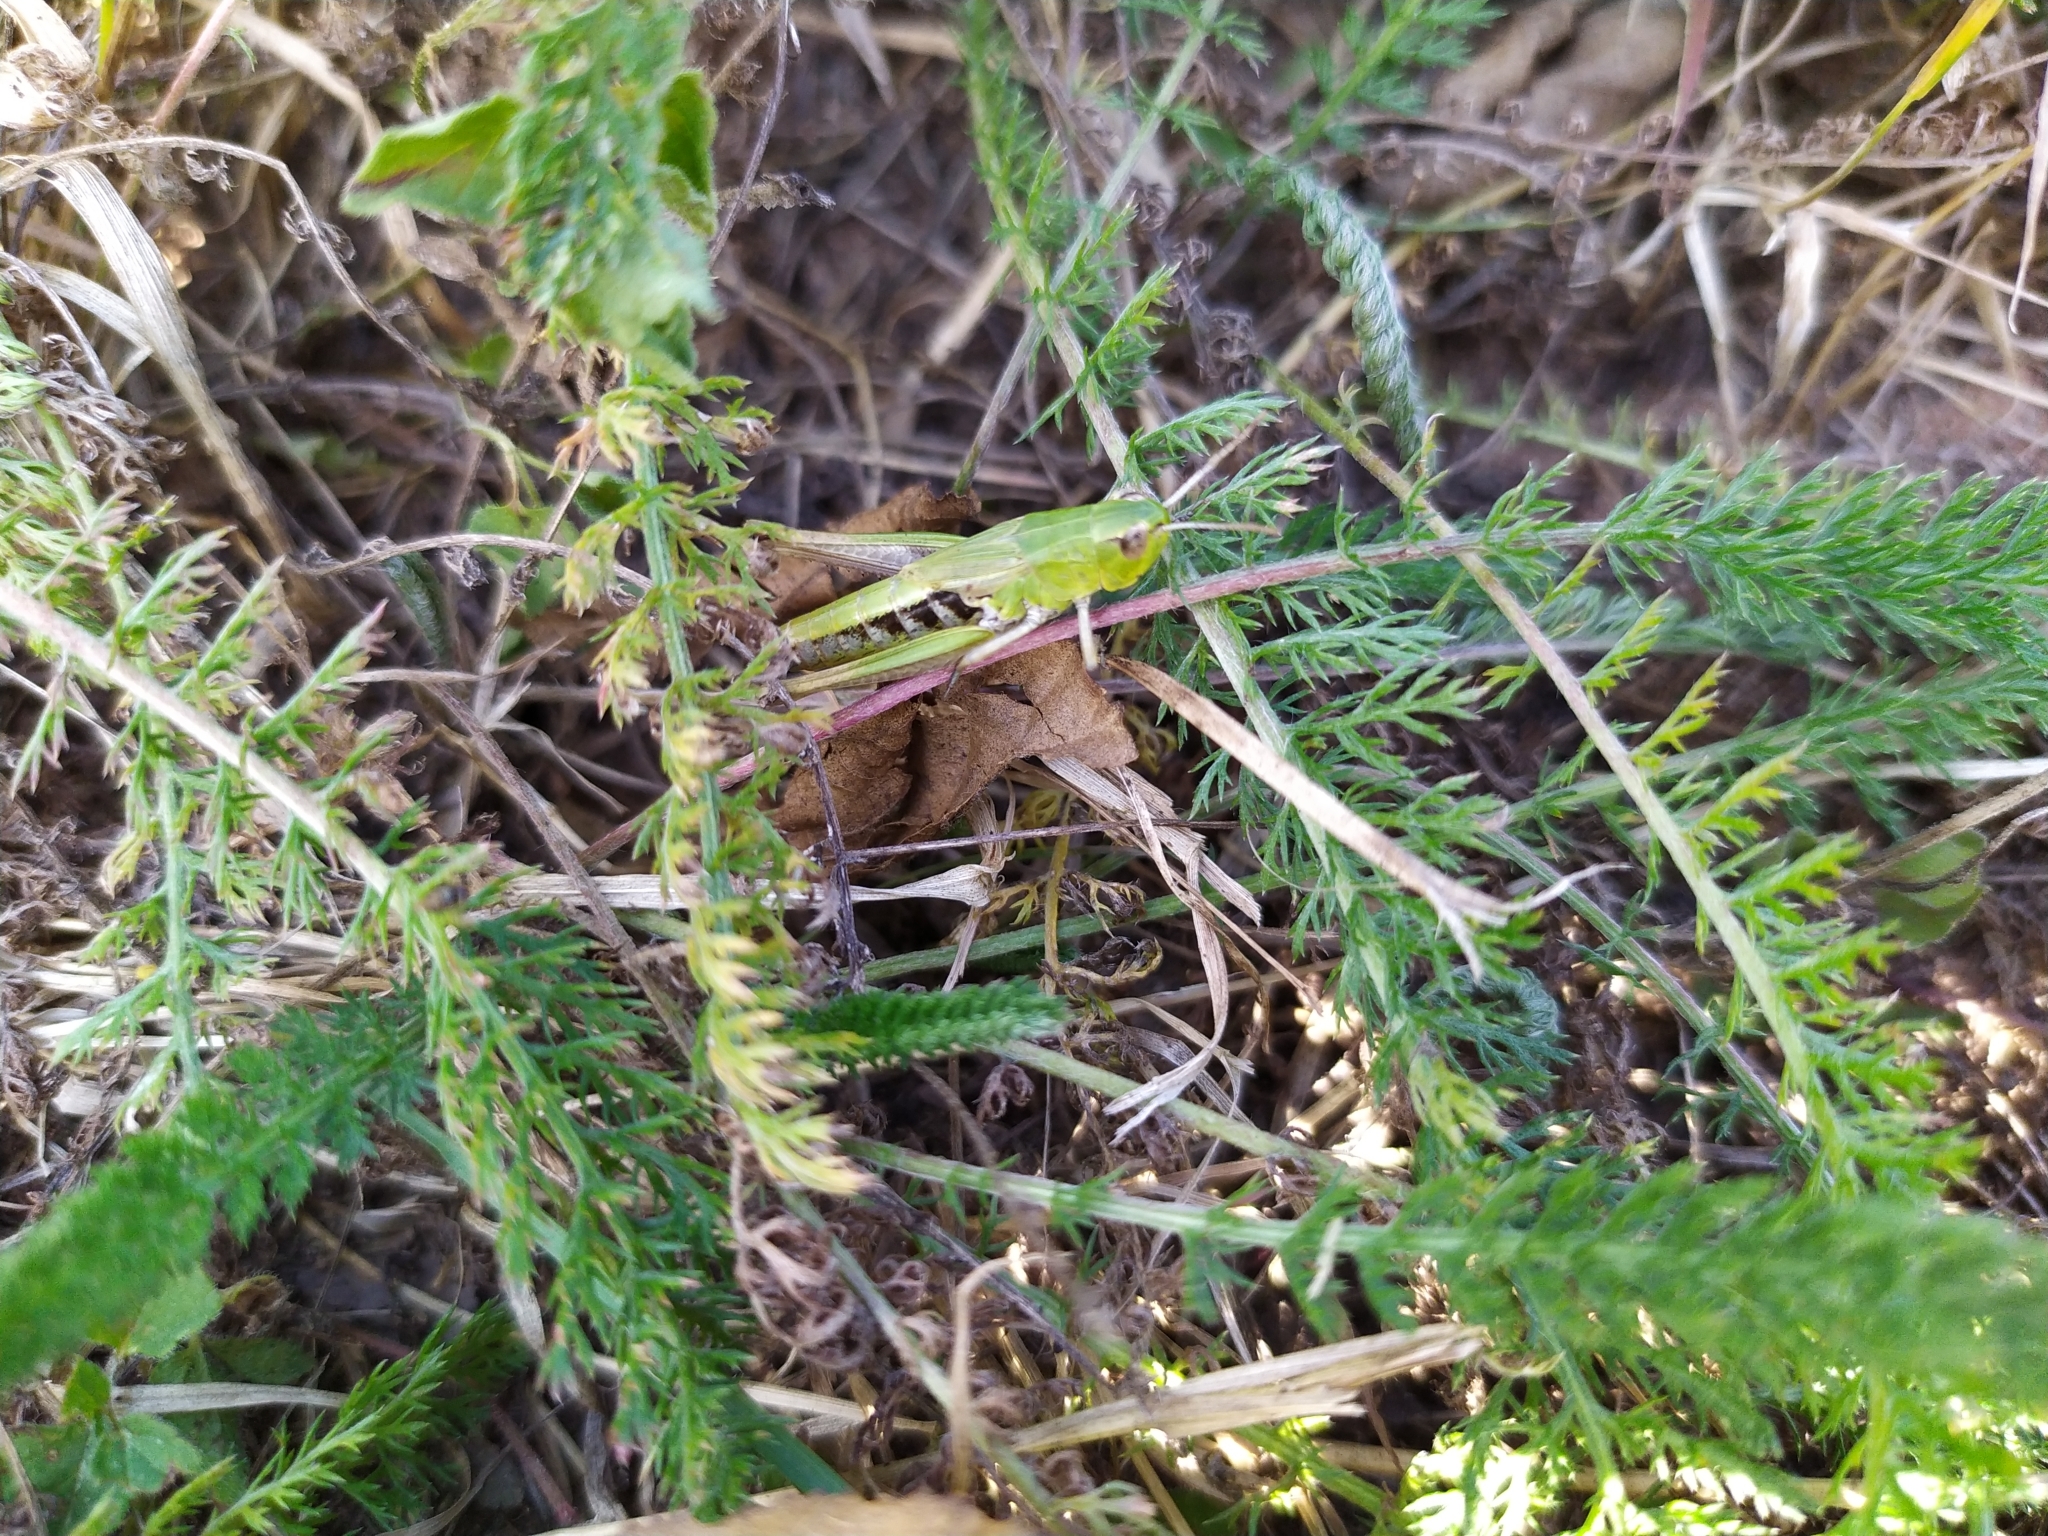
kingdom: Animalia
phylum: Arthropoda
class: Insecta
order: Orthoptera
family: Acrididae
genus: Pseudochorthippus
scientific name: Pseudochorthippus parallelus
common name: Meadow grasshopper
